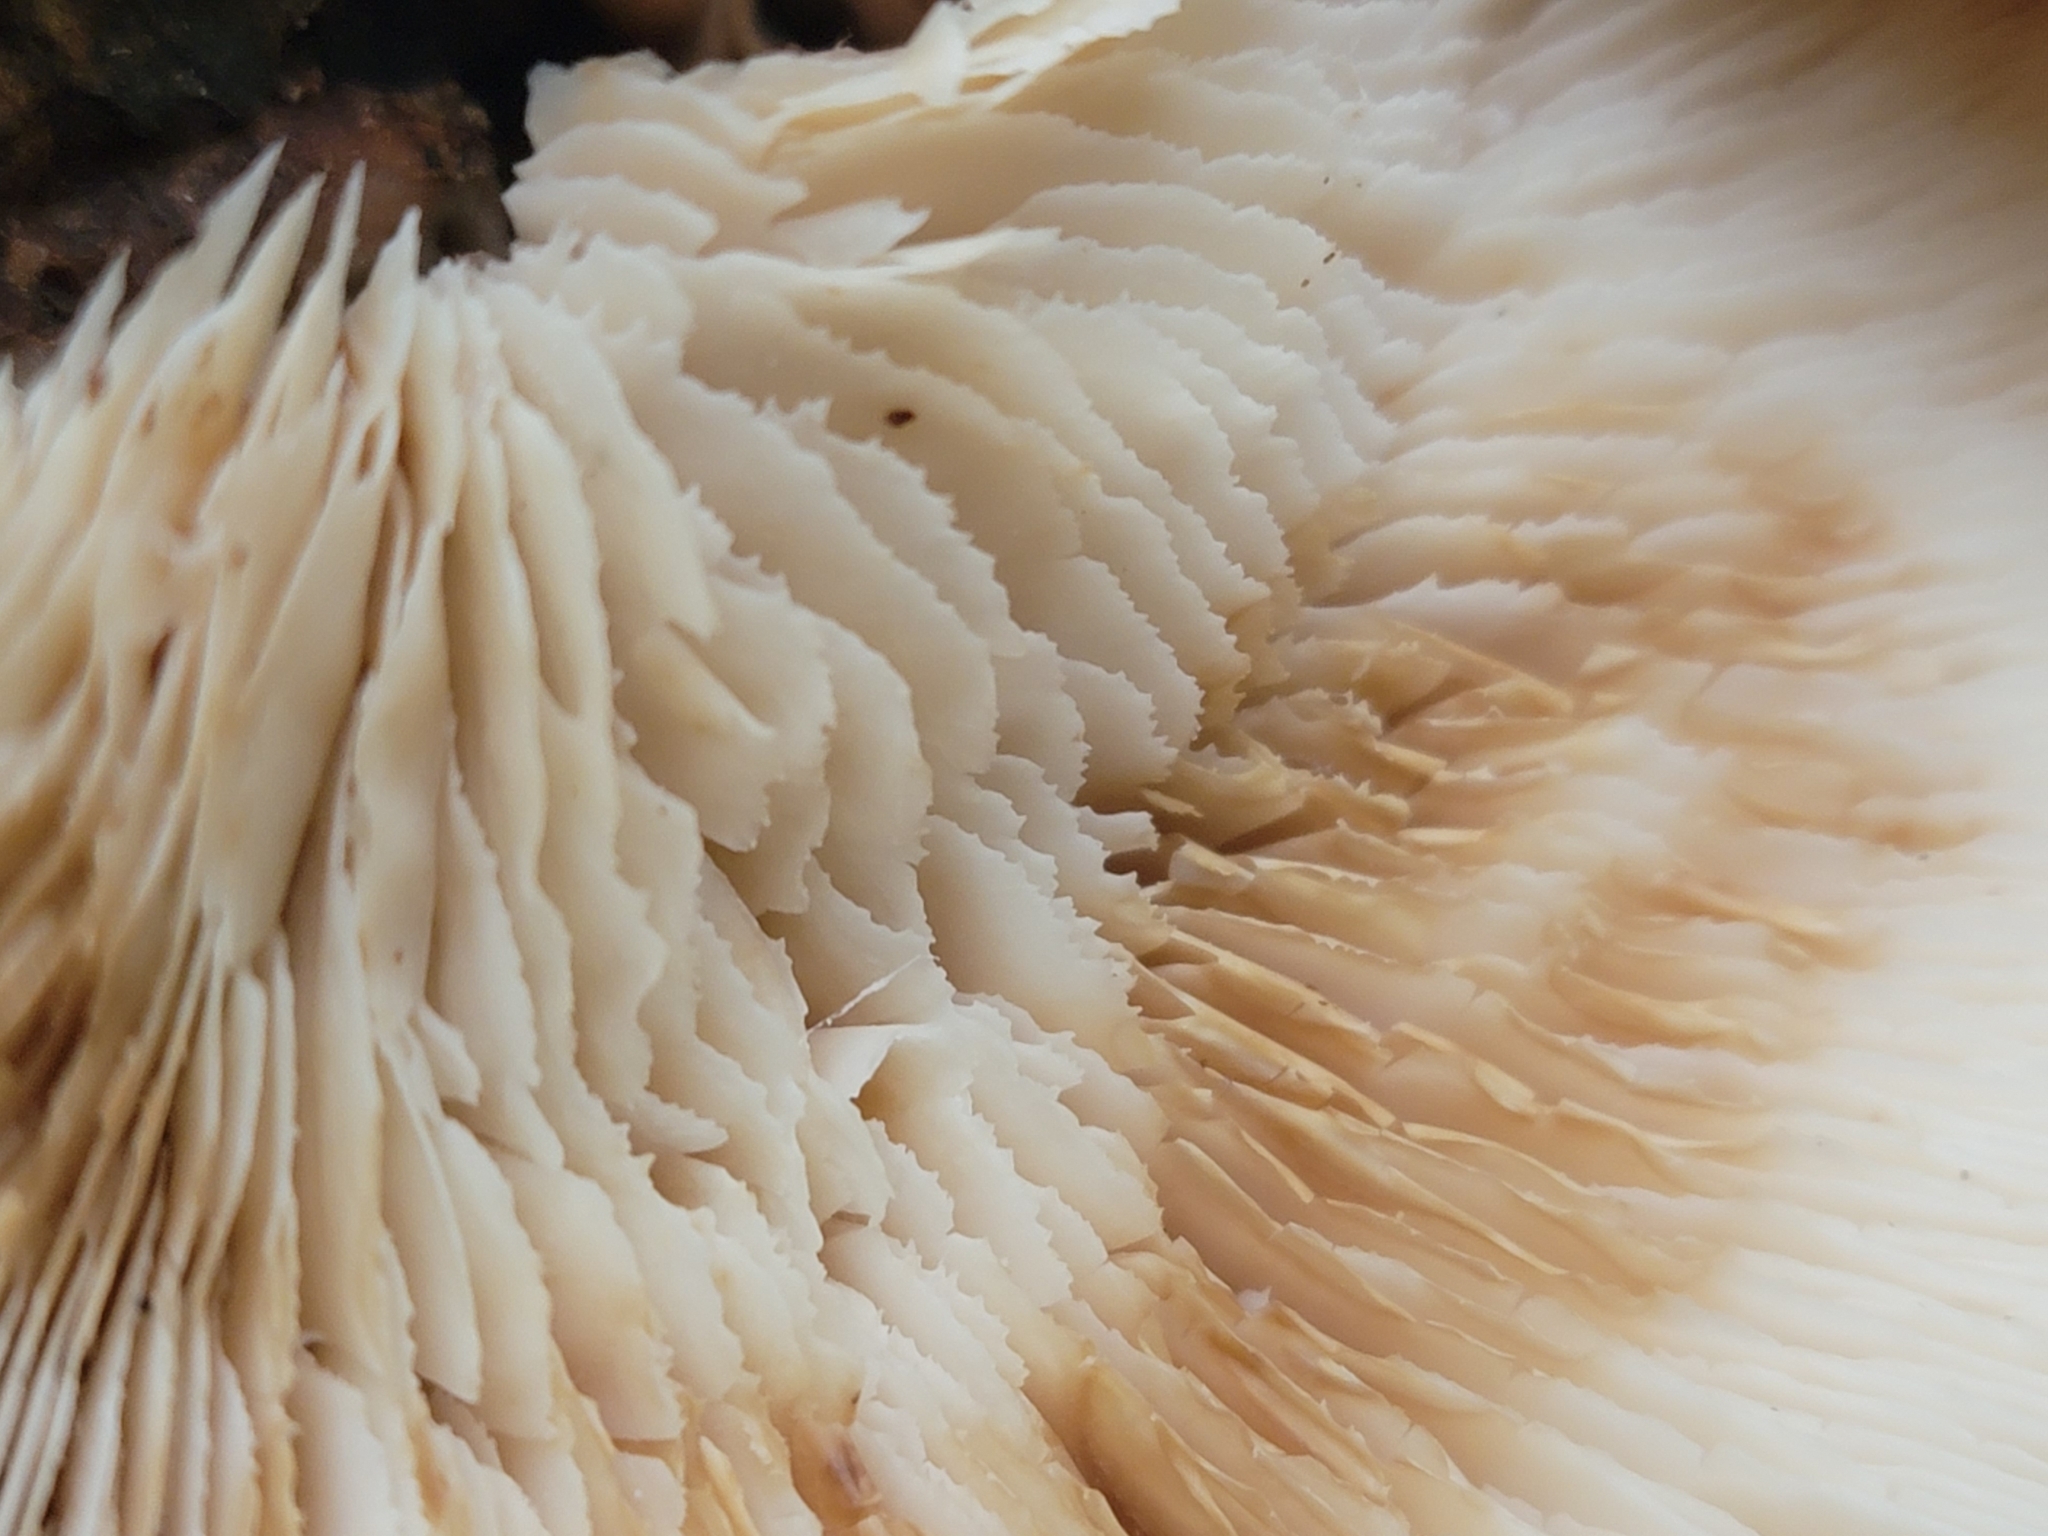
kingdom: Fungi
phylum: Basidiomycota
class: Agaricomycetes
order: Russulales
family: Auriscalpiaceae
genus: Lentinellus
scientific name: Lentinellus ursinus
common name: Bear lentinus
